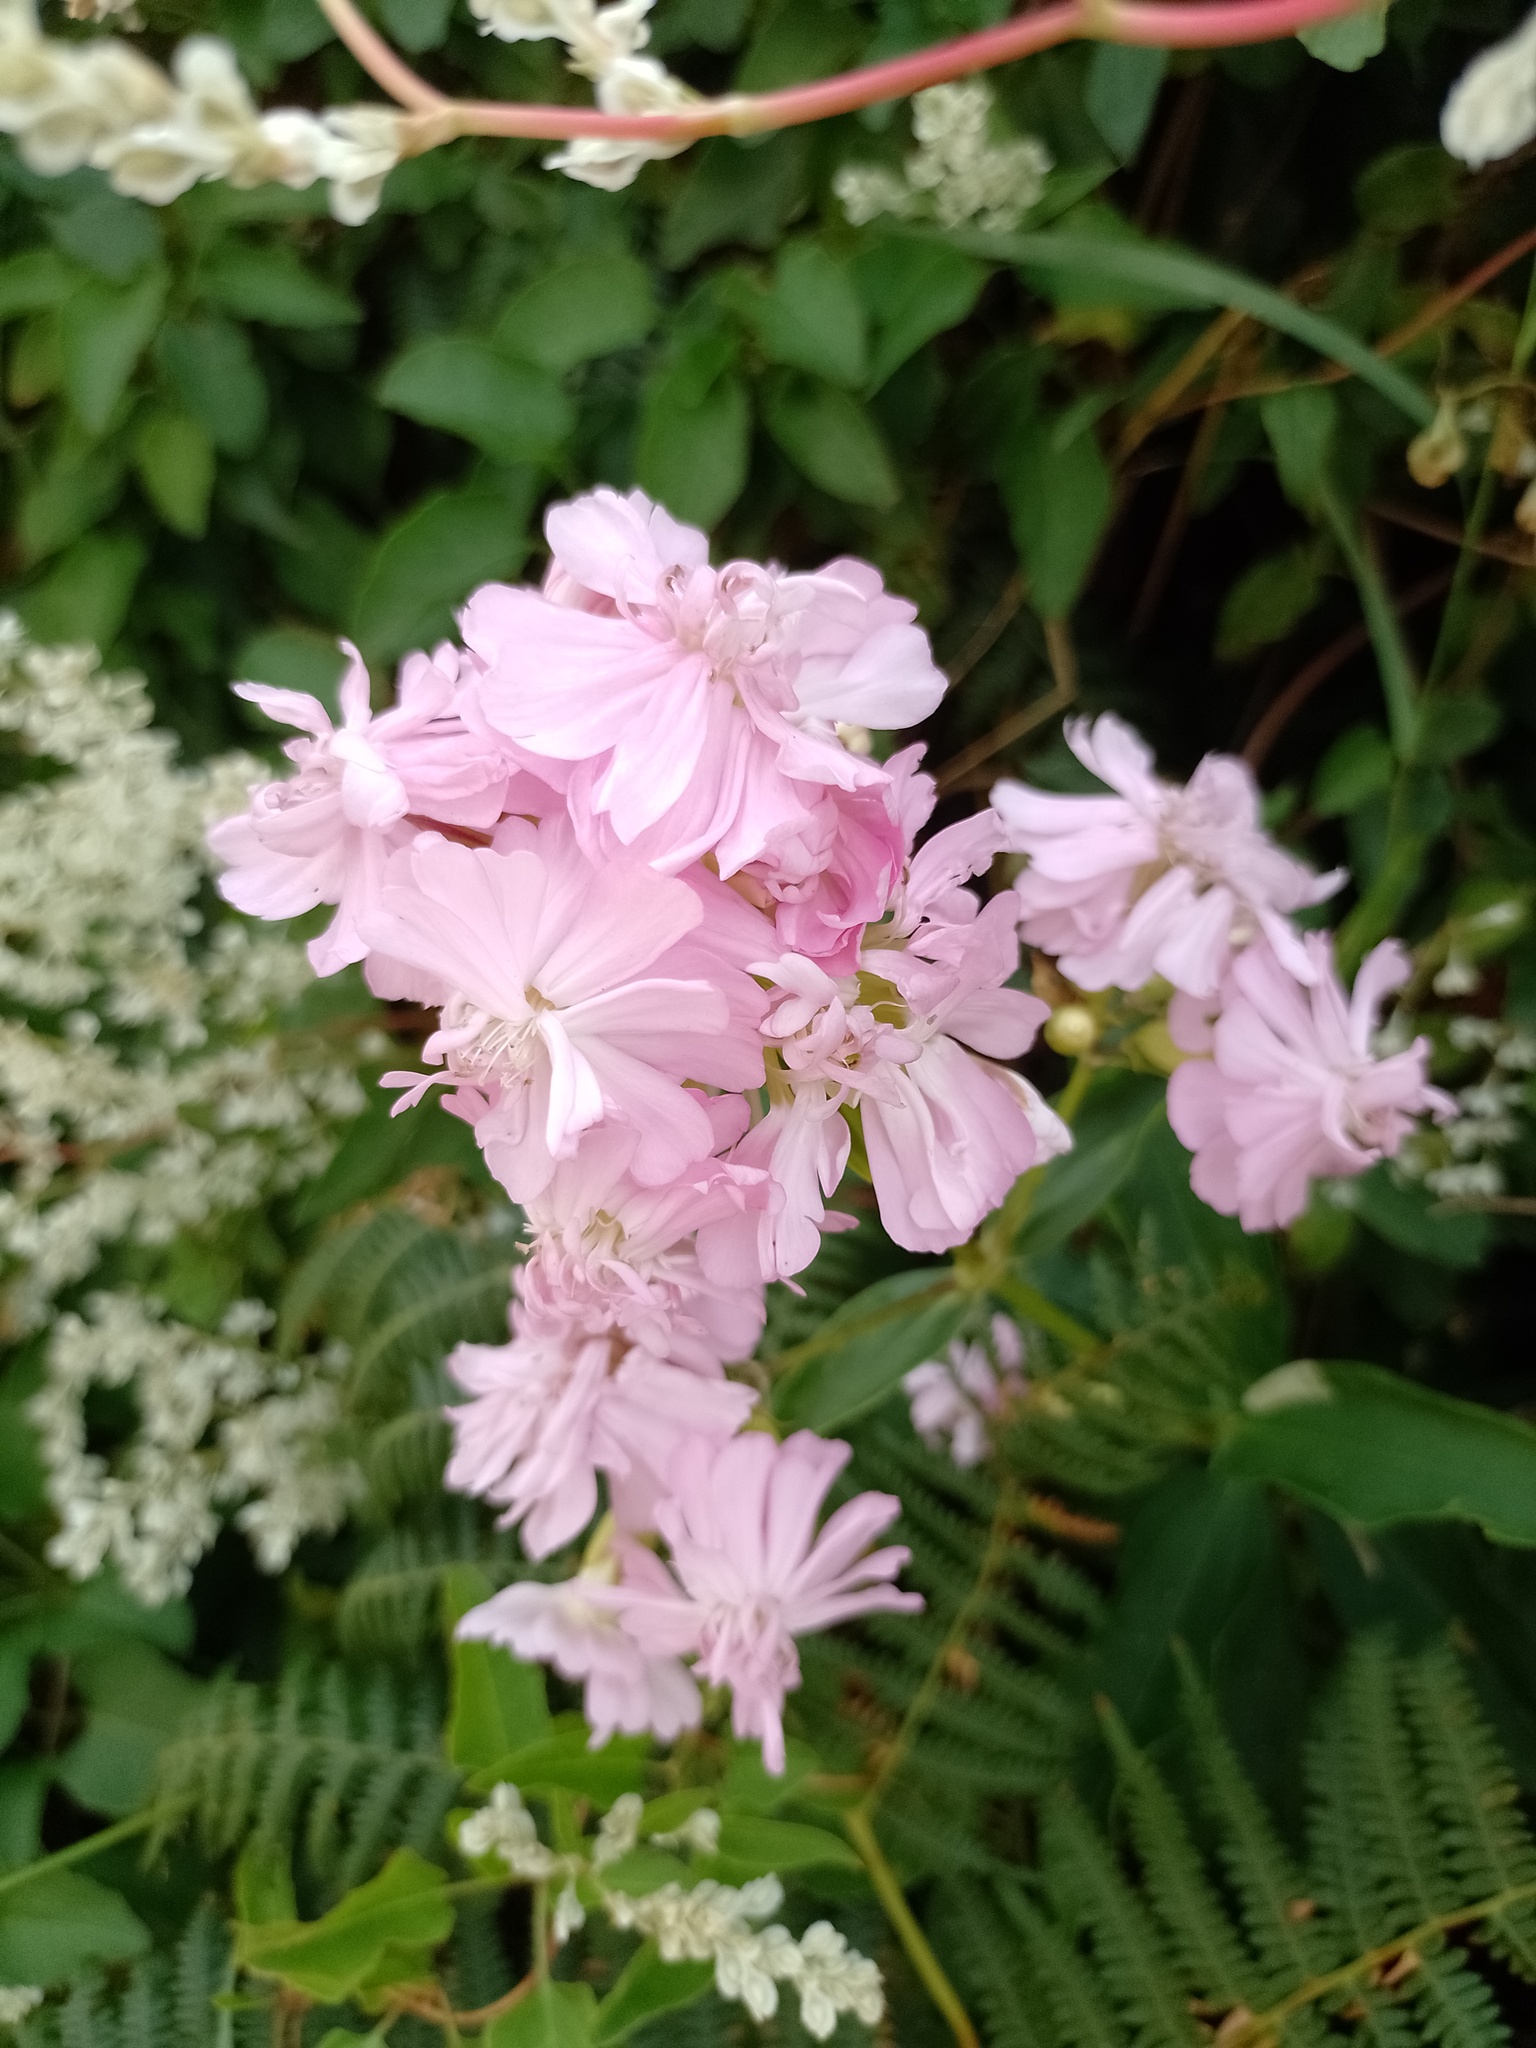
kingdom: Plantae
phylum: Tracheophyta
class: Magnoliopsida
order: Caryophyllales
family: Caryophyllaceae
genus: Saponaria
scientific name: Saponaria officinalis
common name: Soapwort
